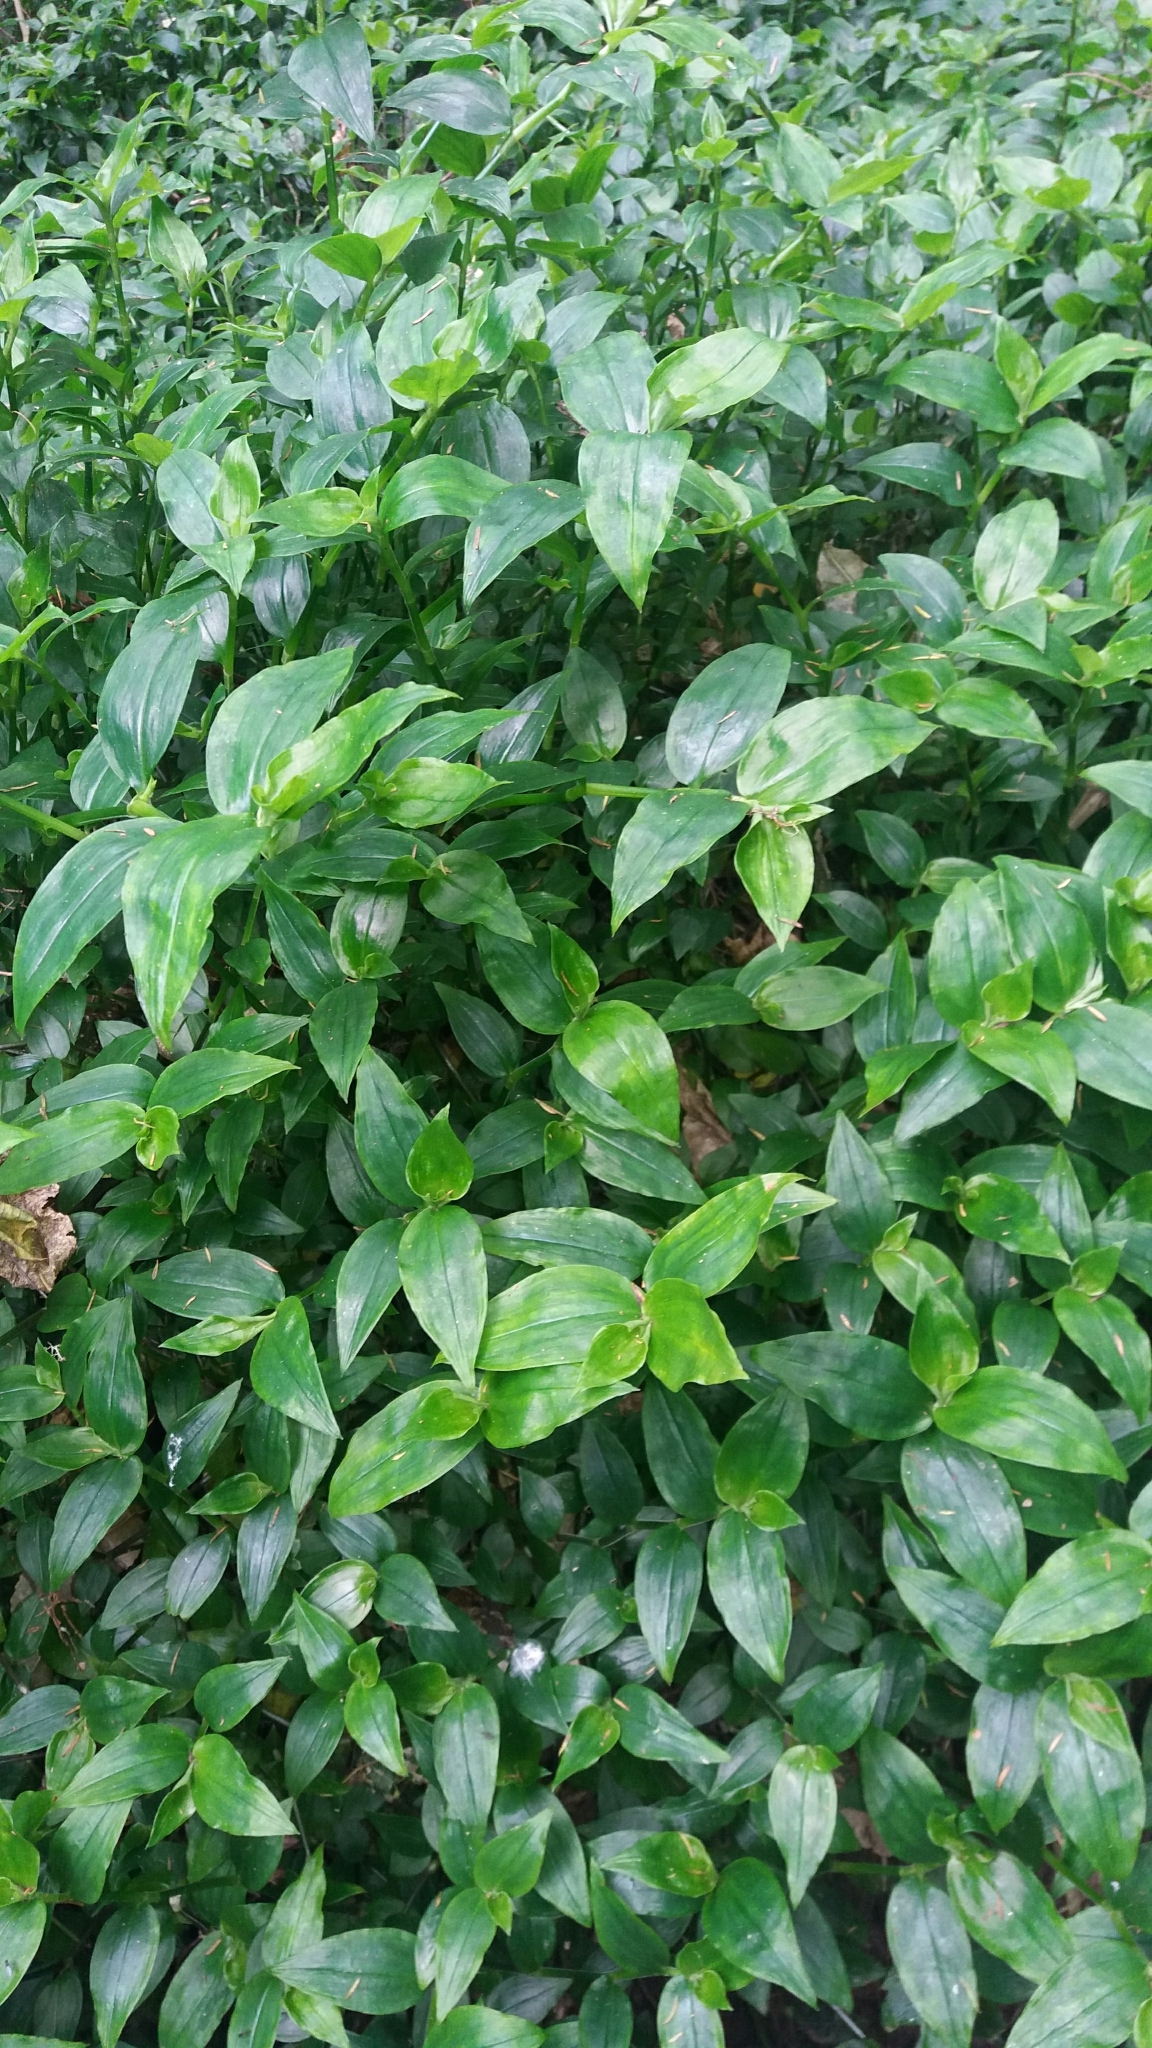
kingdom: Plantae
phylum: Tracheophyta
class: Liliopsida
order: Commelinales
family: Commelinaceae
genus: Tradescantia
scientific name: Tradescantia fluminensis
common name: Wandering-jew
